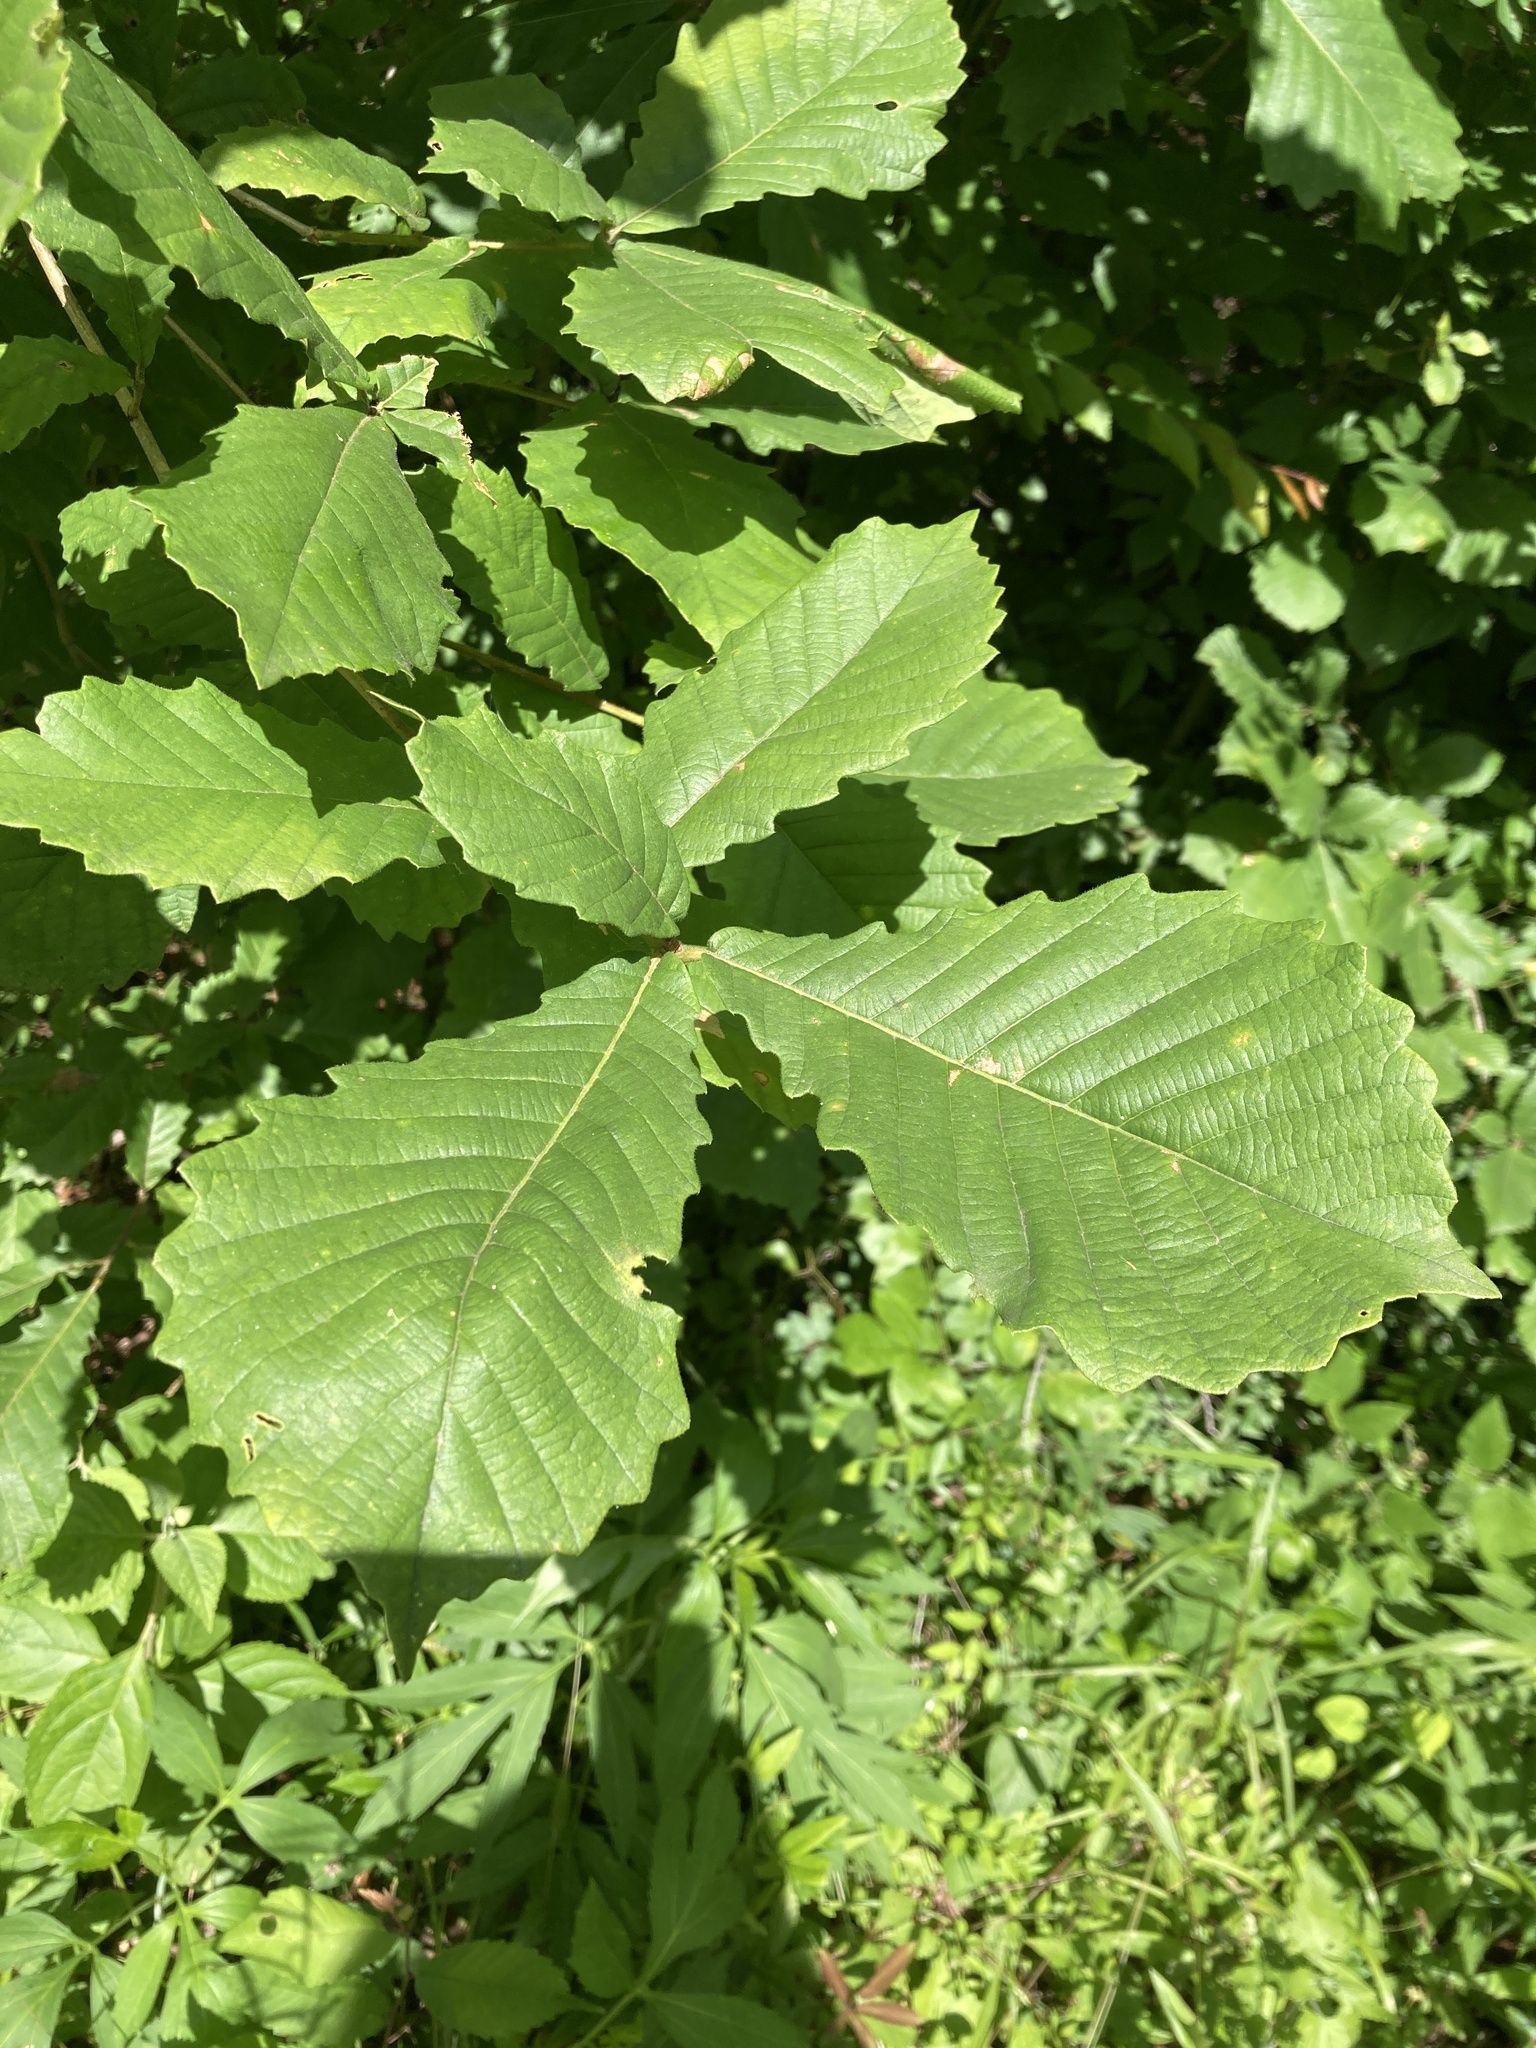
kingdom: Plantae
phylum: Tracheophyta
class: Magnoliopsida
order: Fagales
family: Fagaceae
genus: Quercus
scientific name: Quercus michauxii
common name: Swamp chestnut oak
